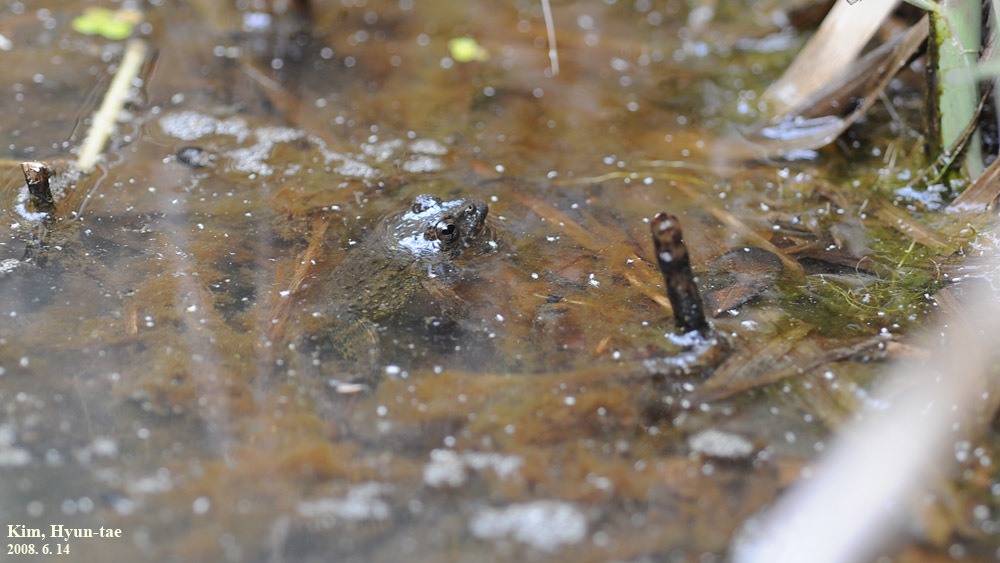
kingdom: Animalia
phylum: Chordata
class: Amphibia
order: Anura
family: Ranidae
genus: Glandirana
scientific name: Glandirana emeljanovi
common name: Northeast china rough-skinned frog
